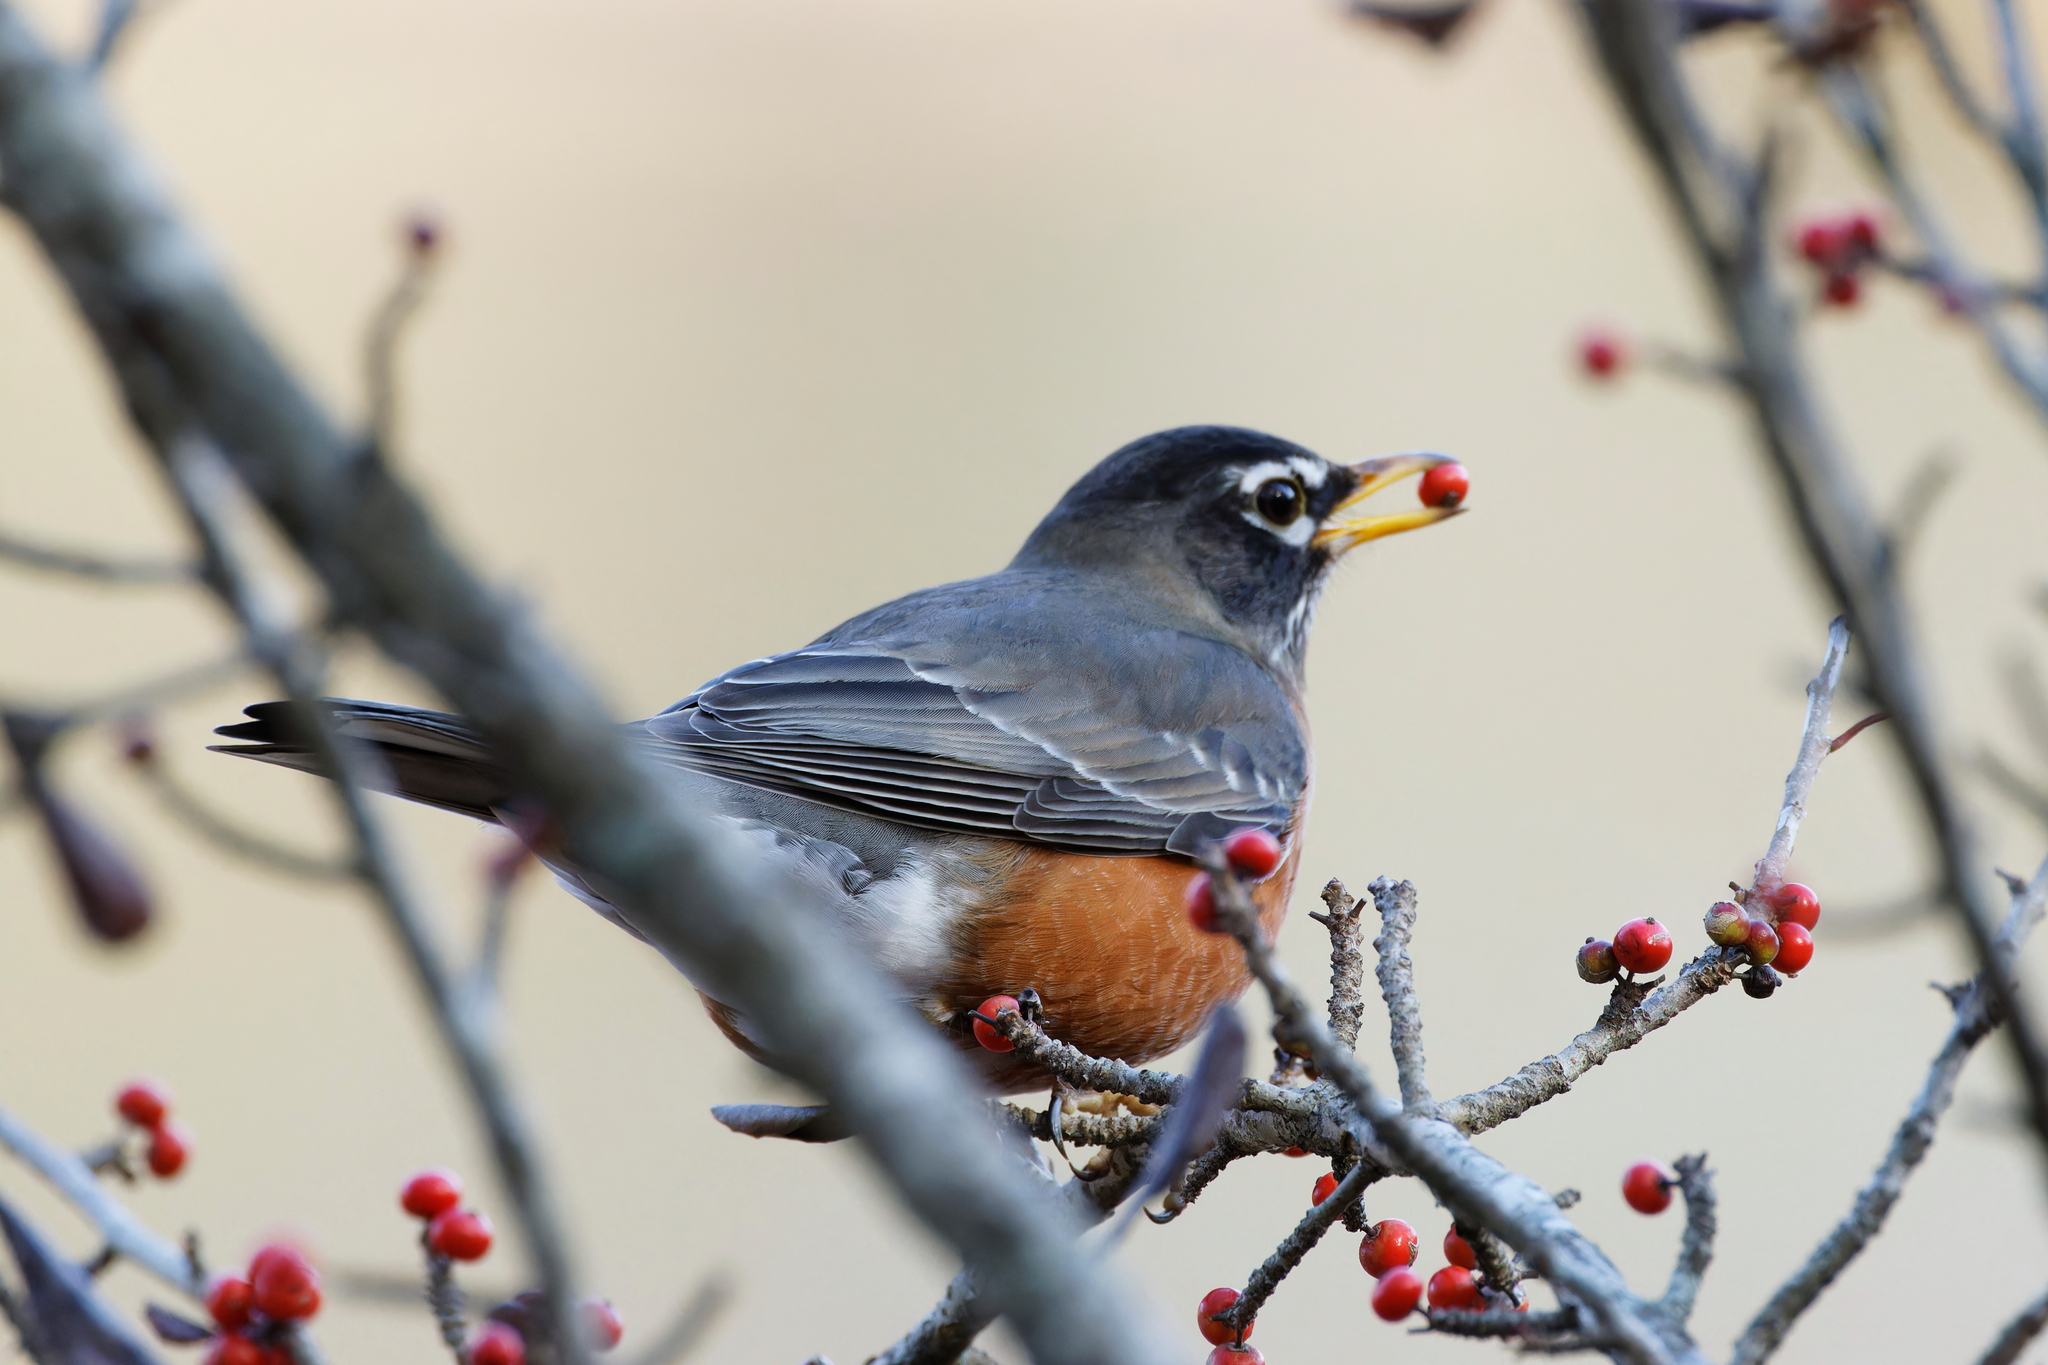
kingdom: Animalia
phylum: Chordata
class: Aves
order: Passeriformes
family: Turdidae
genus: Turdus
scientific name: Turdus migratorius
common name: American robin
